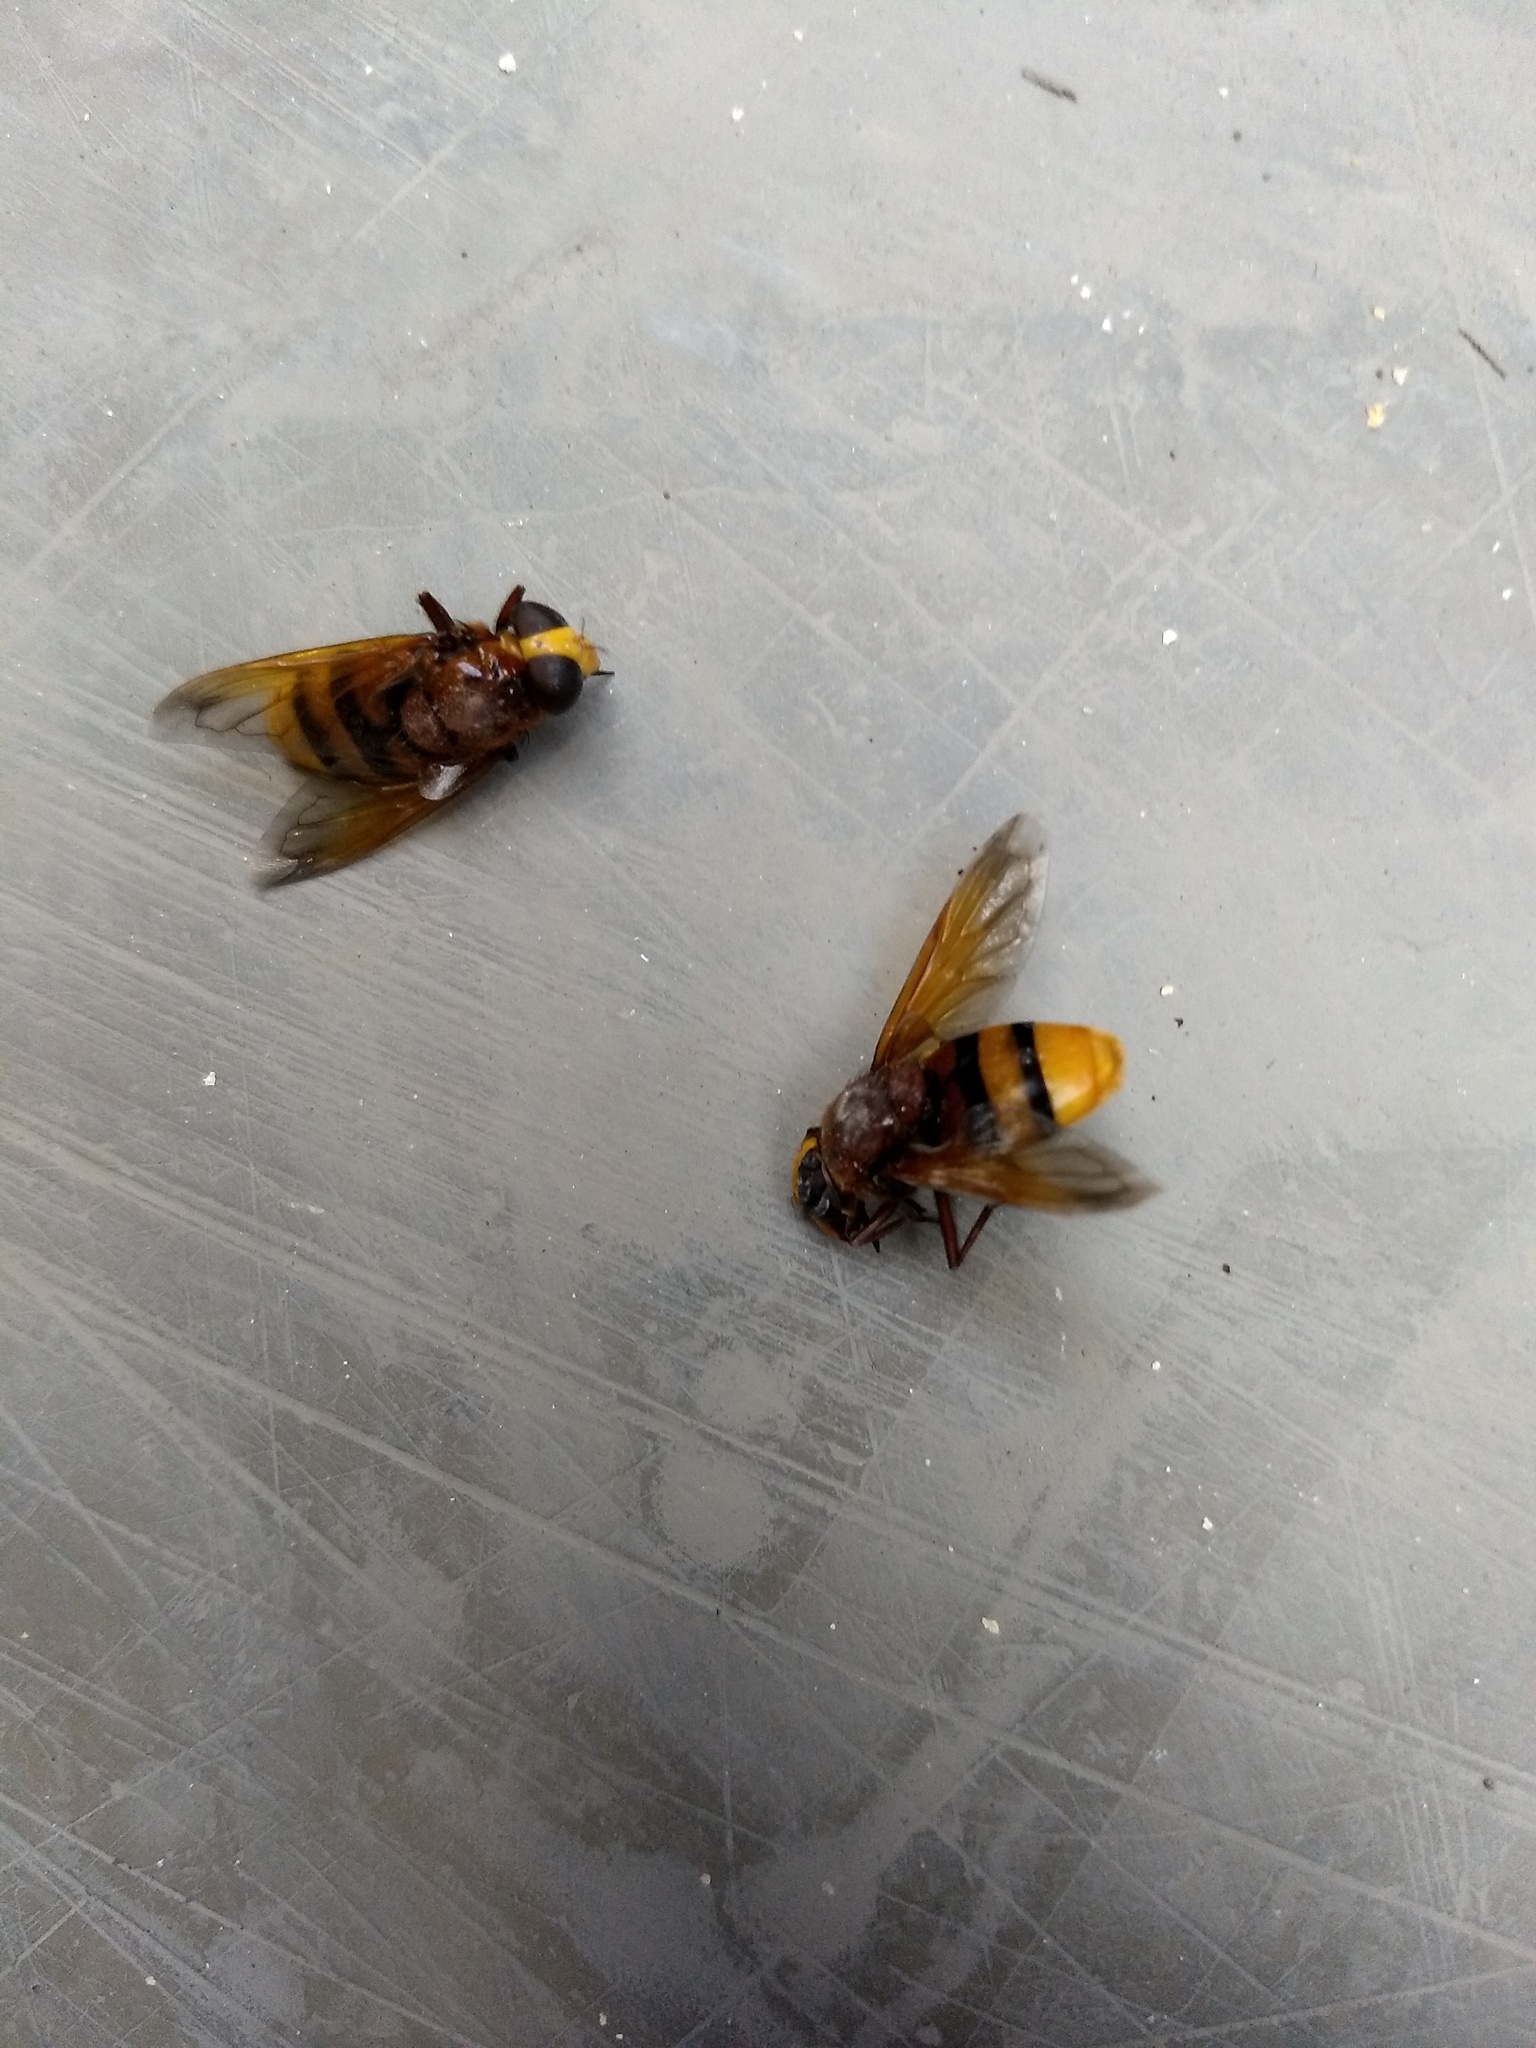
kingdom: Animalia
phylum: Arthropoda
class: Insecta
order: Diptera
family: Syrphidae
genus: Volucella
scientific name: Volucella zonaria
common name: Hornet hoverfly
